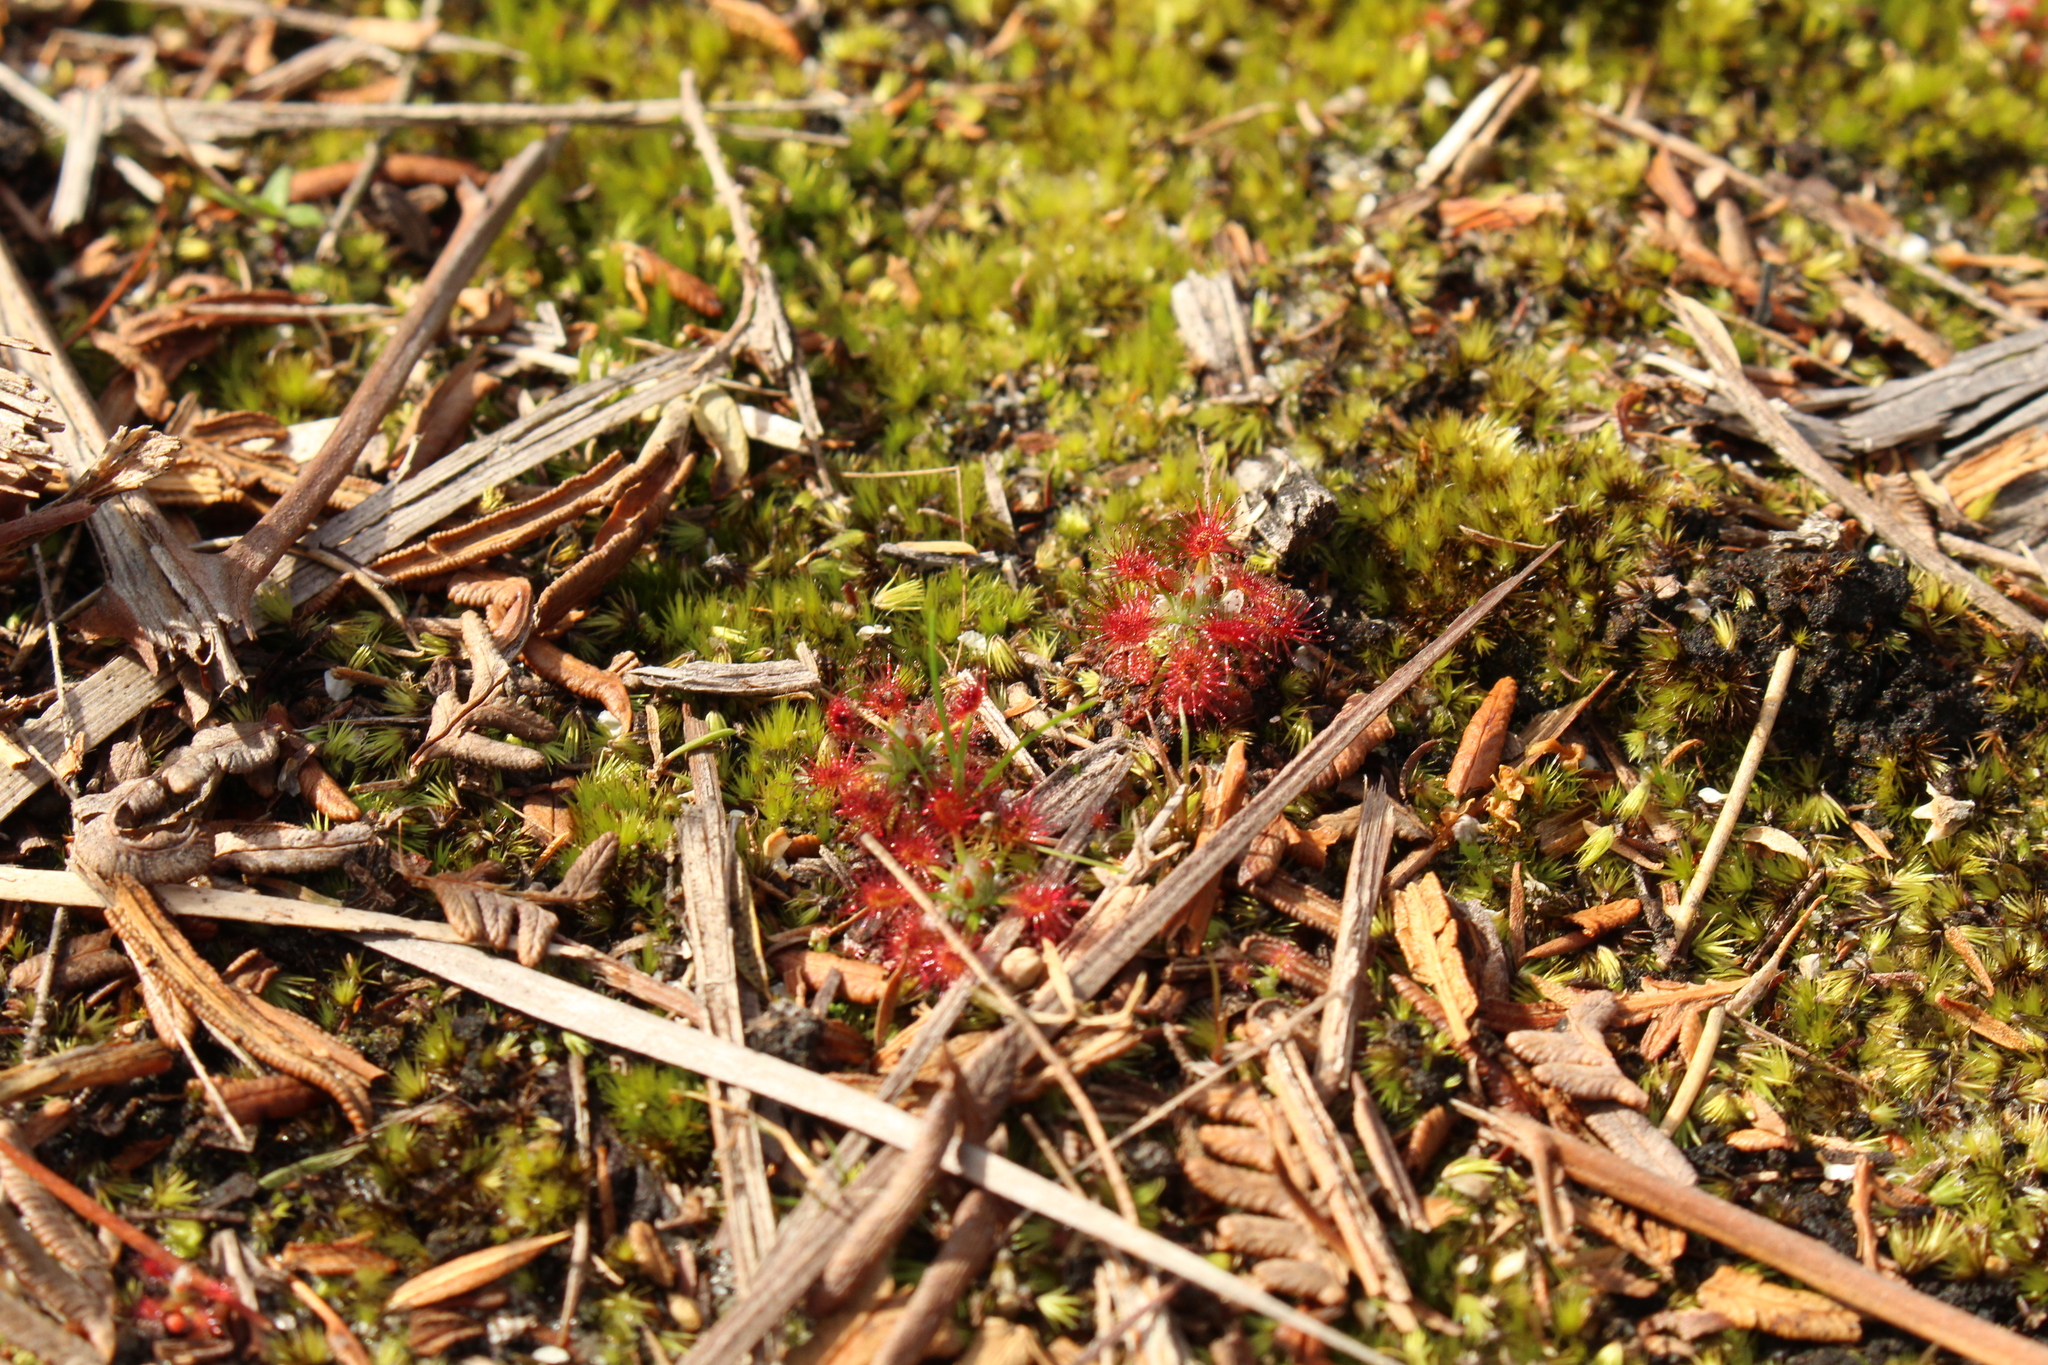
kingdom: Plantae
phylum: Tracheophyta
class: Magnoliopsida
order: Caryophyllales
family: Droseraceae
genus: Drosera
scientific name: Drosera paleacea
